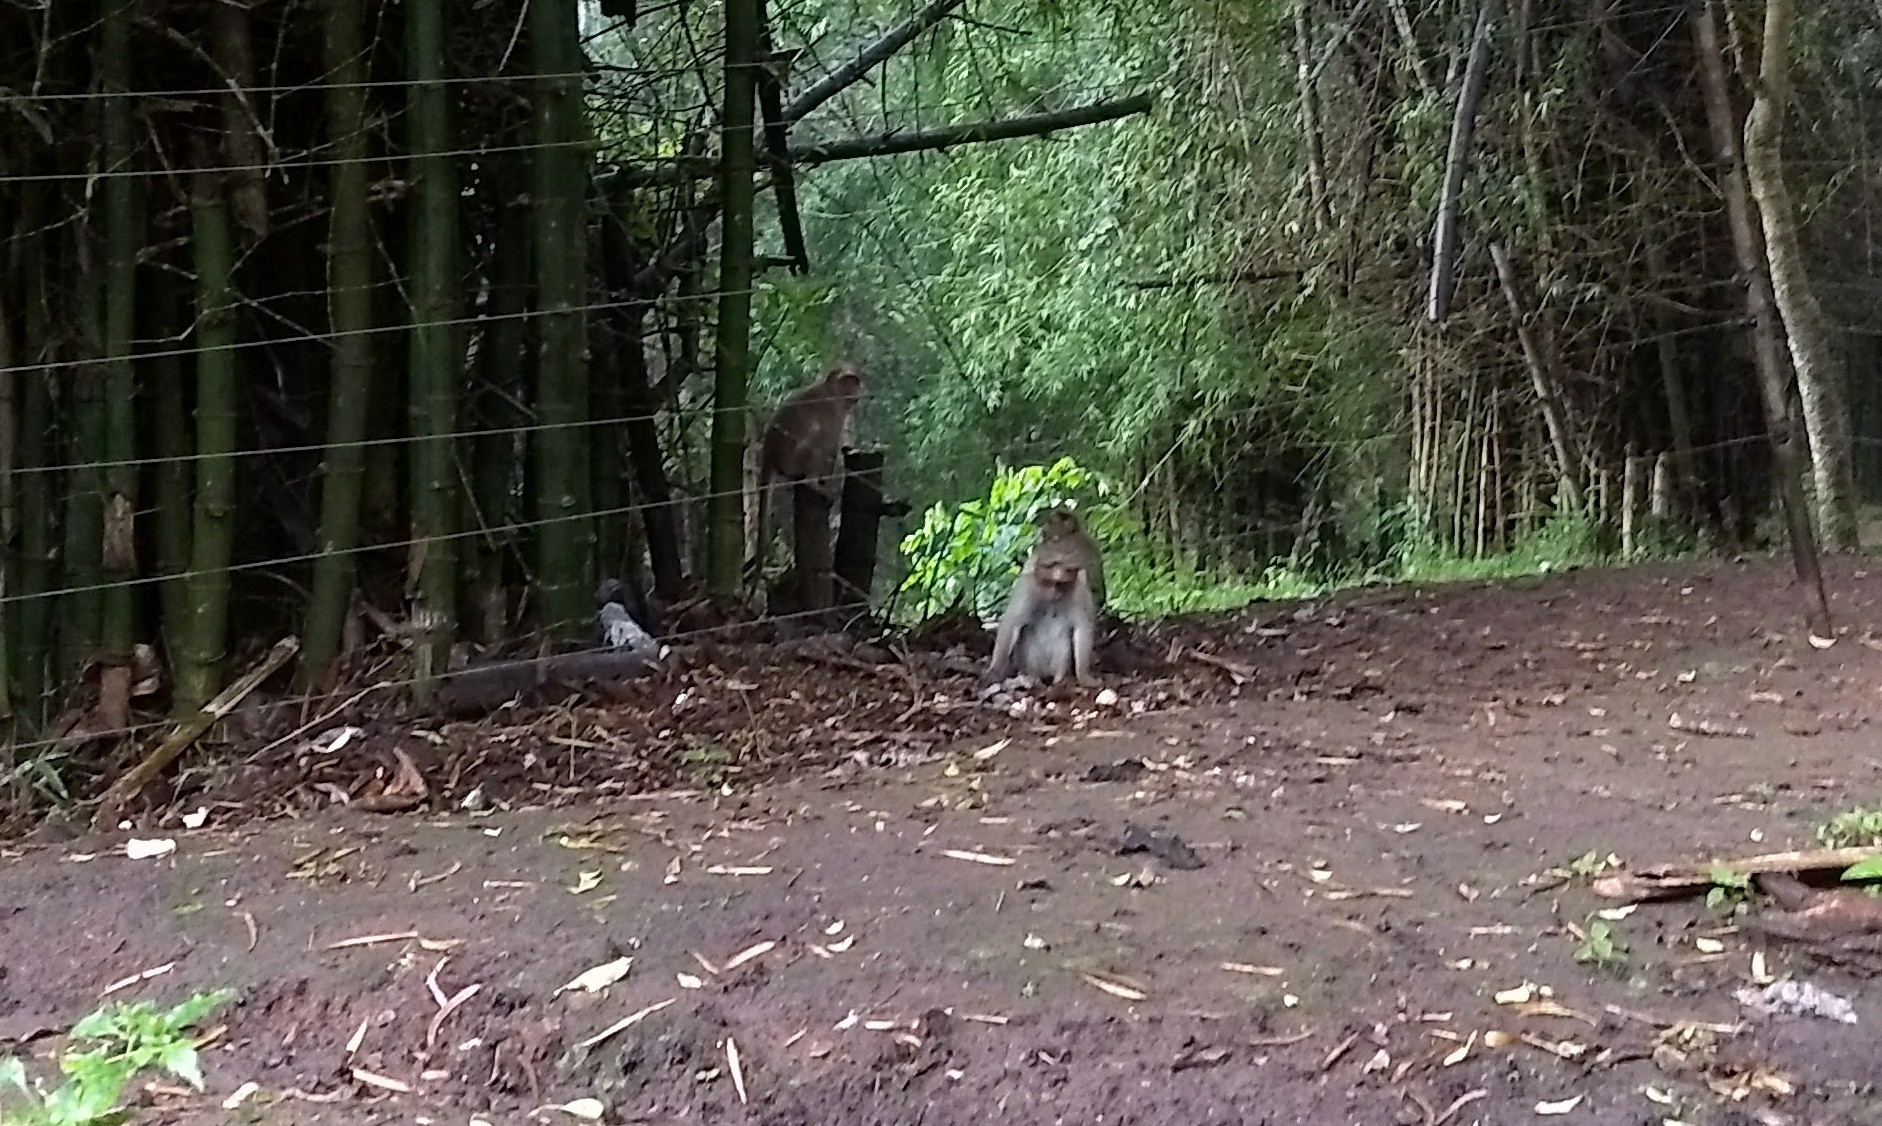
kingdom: Animalia
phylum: Chordata
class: Mammalia
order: Primates
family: Cercopithecidae
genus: Macaca
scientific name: Macaca radiata
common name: Bonnet macaque
